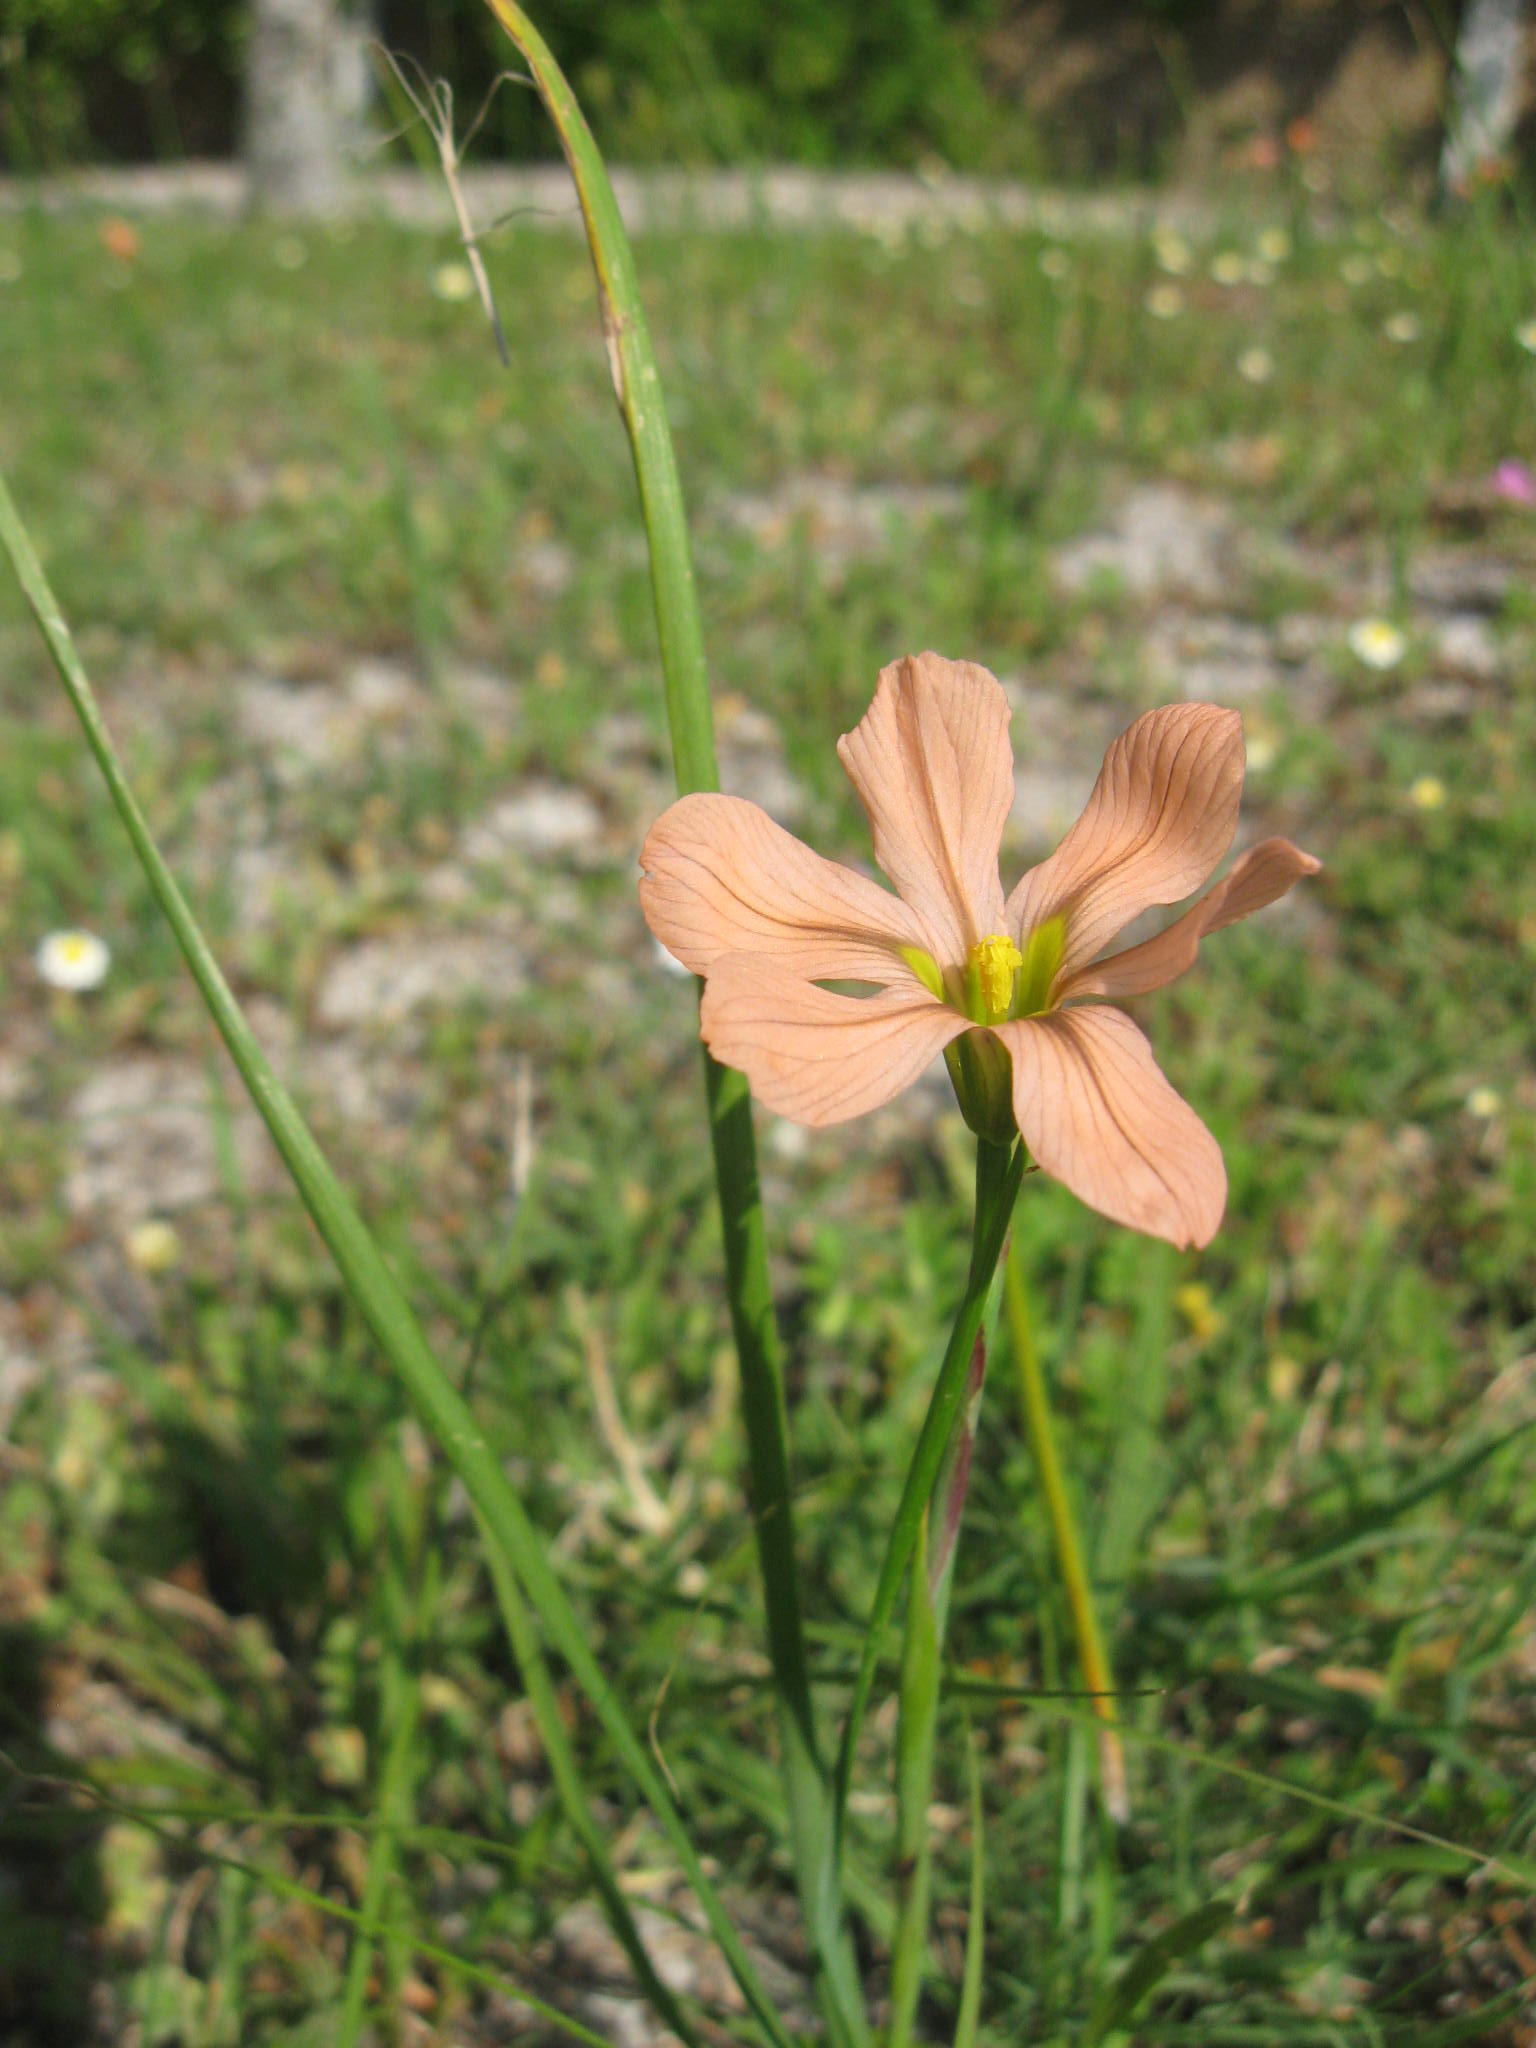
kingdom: Plantae
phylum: Tracheophyta
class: Liliopsida
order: Asparagales
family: Iridaceae
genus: Moraea
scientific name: Moraea flaccida
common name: One-leaf cape-tulip
